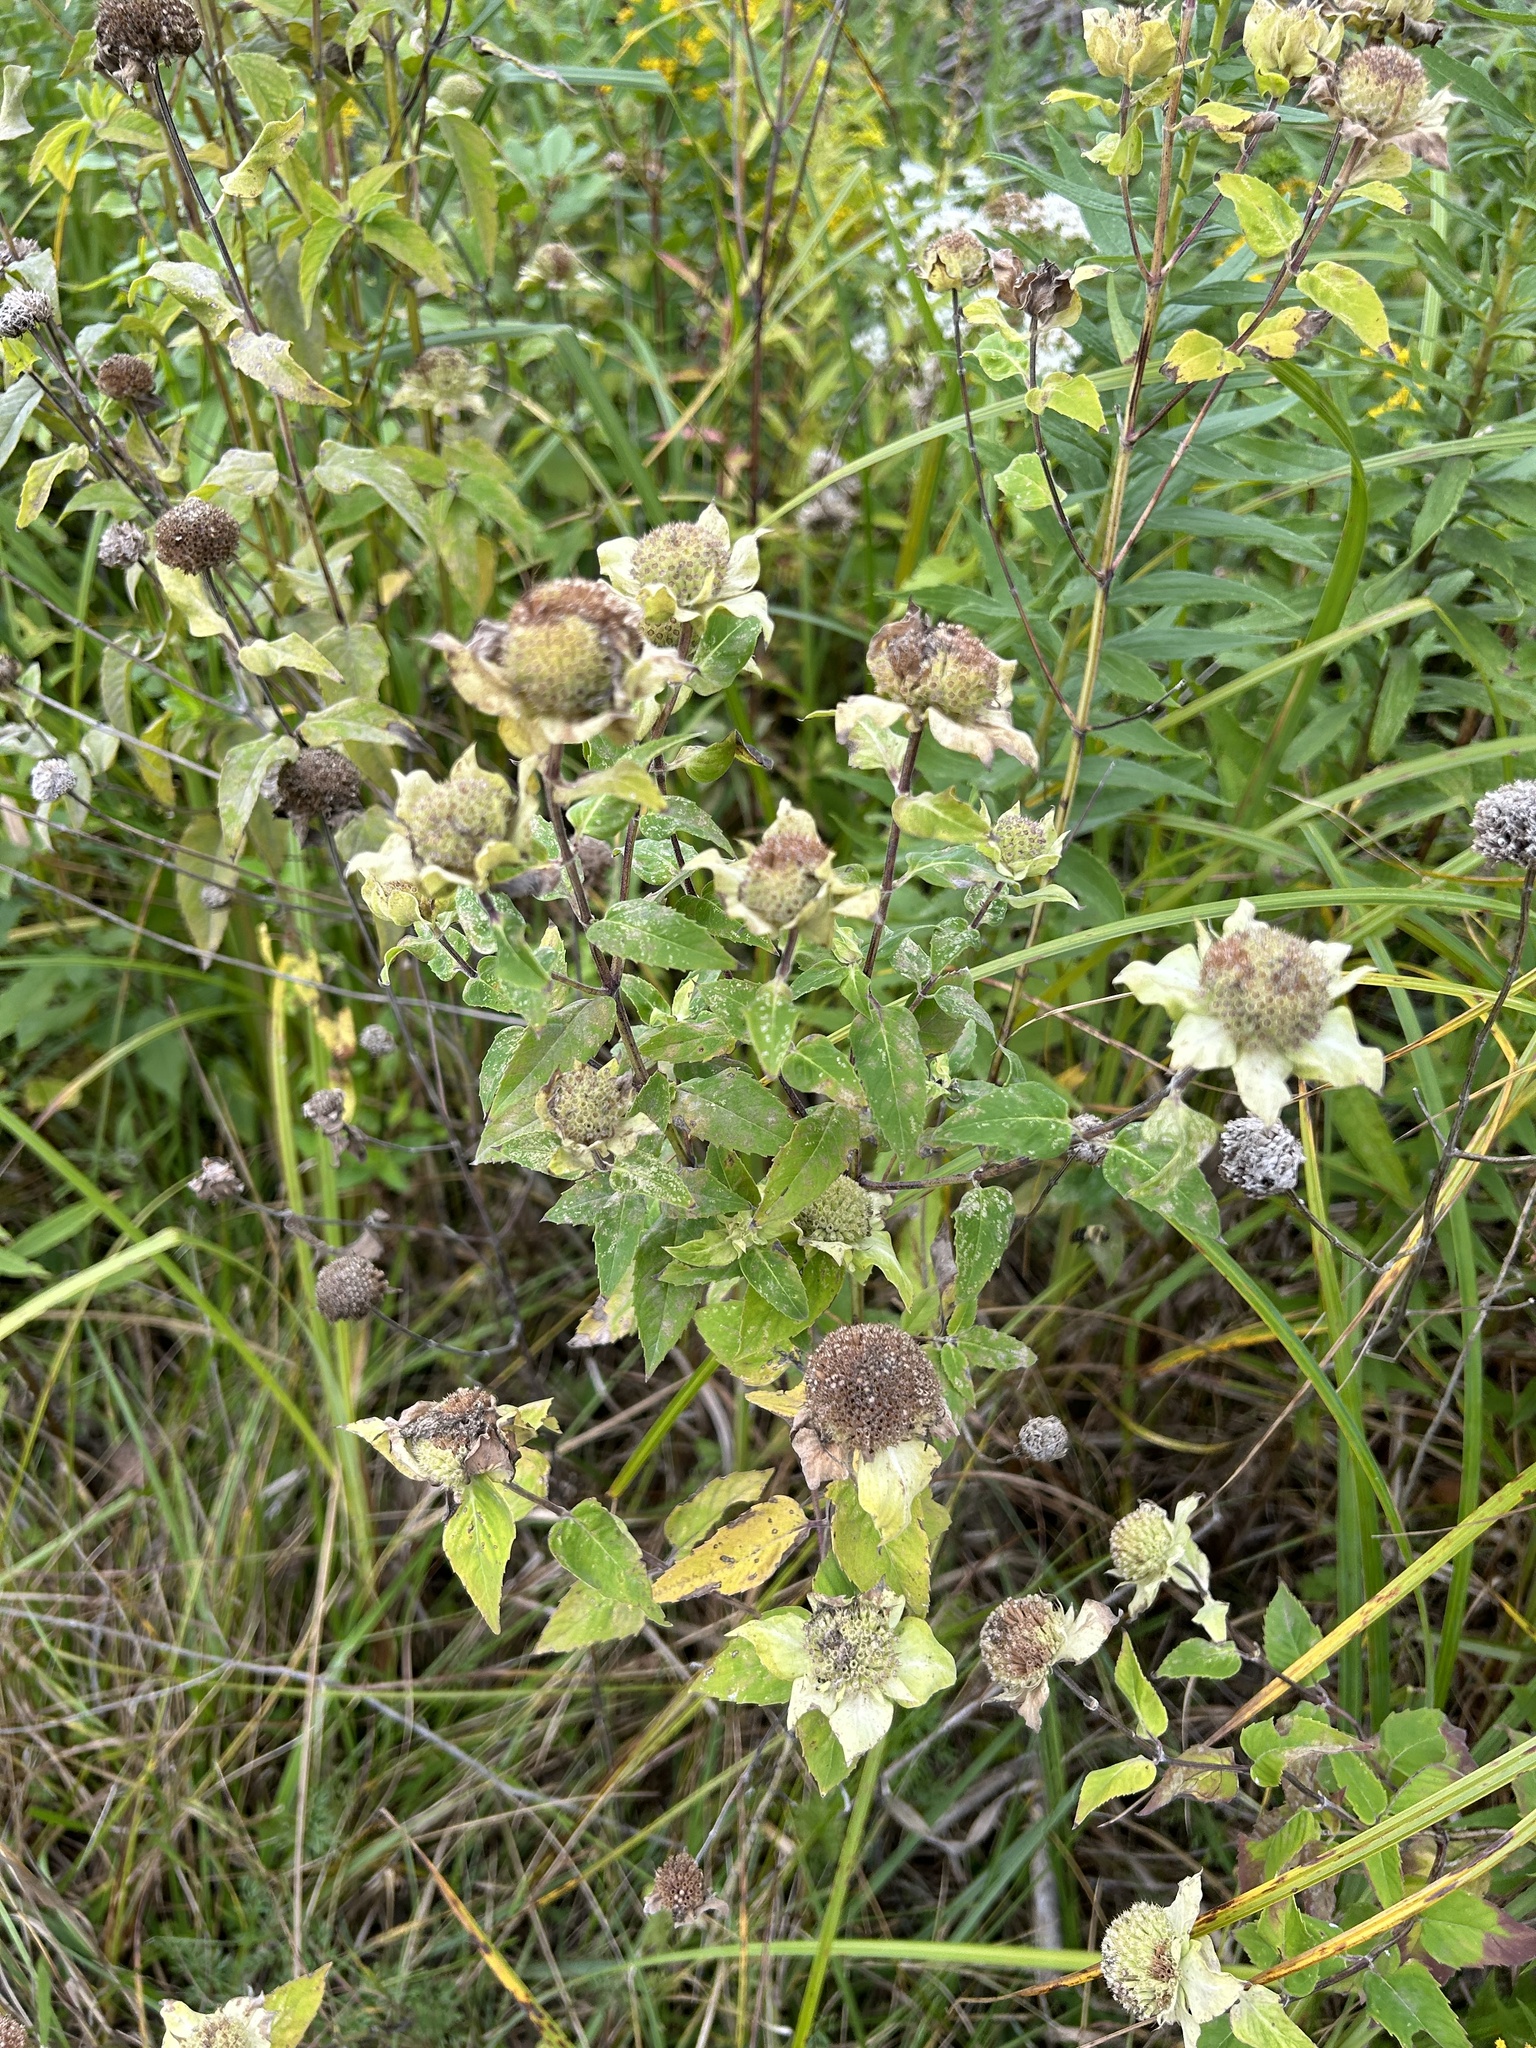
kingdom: Plantae
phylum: Tracheophyta
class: Magnoliopsida
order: Lamiales
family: Lamiaceae
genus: Monarda
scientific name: Monarda fistulosa
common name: Purple beebalm
